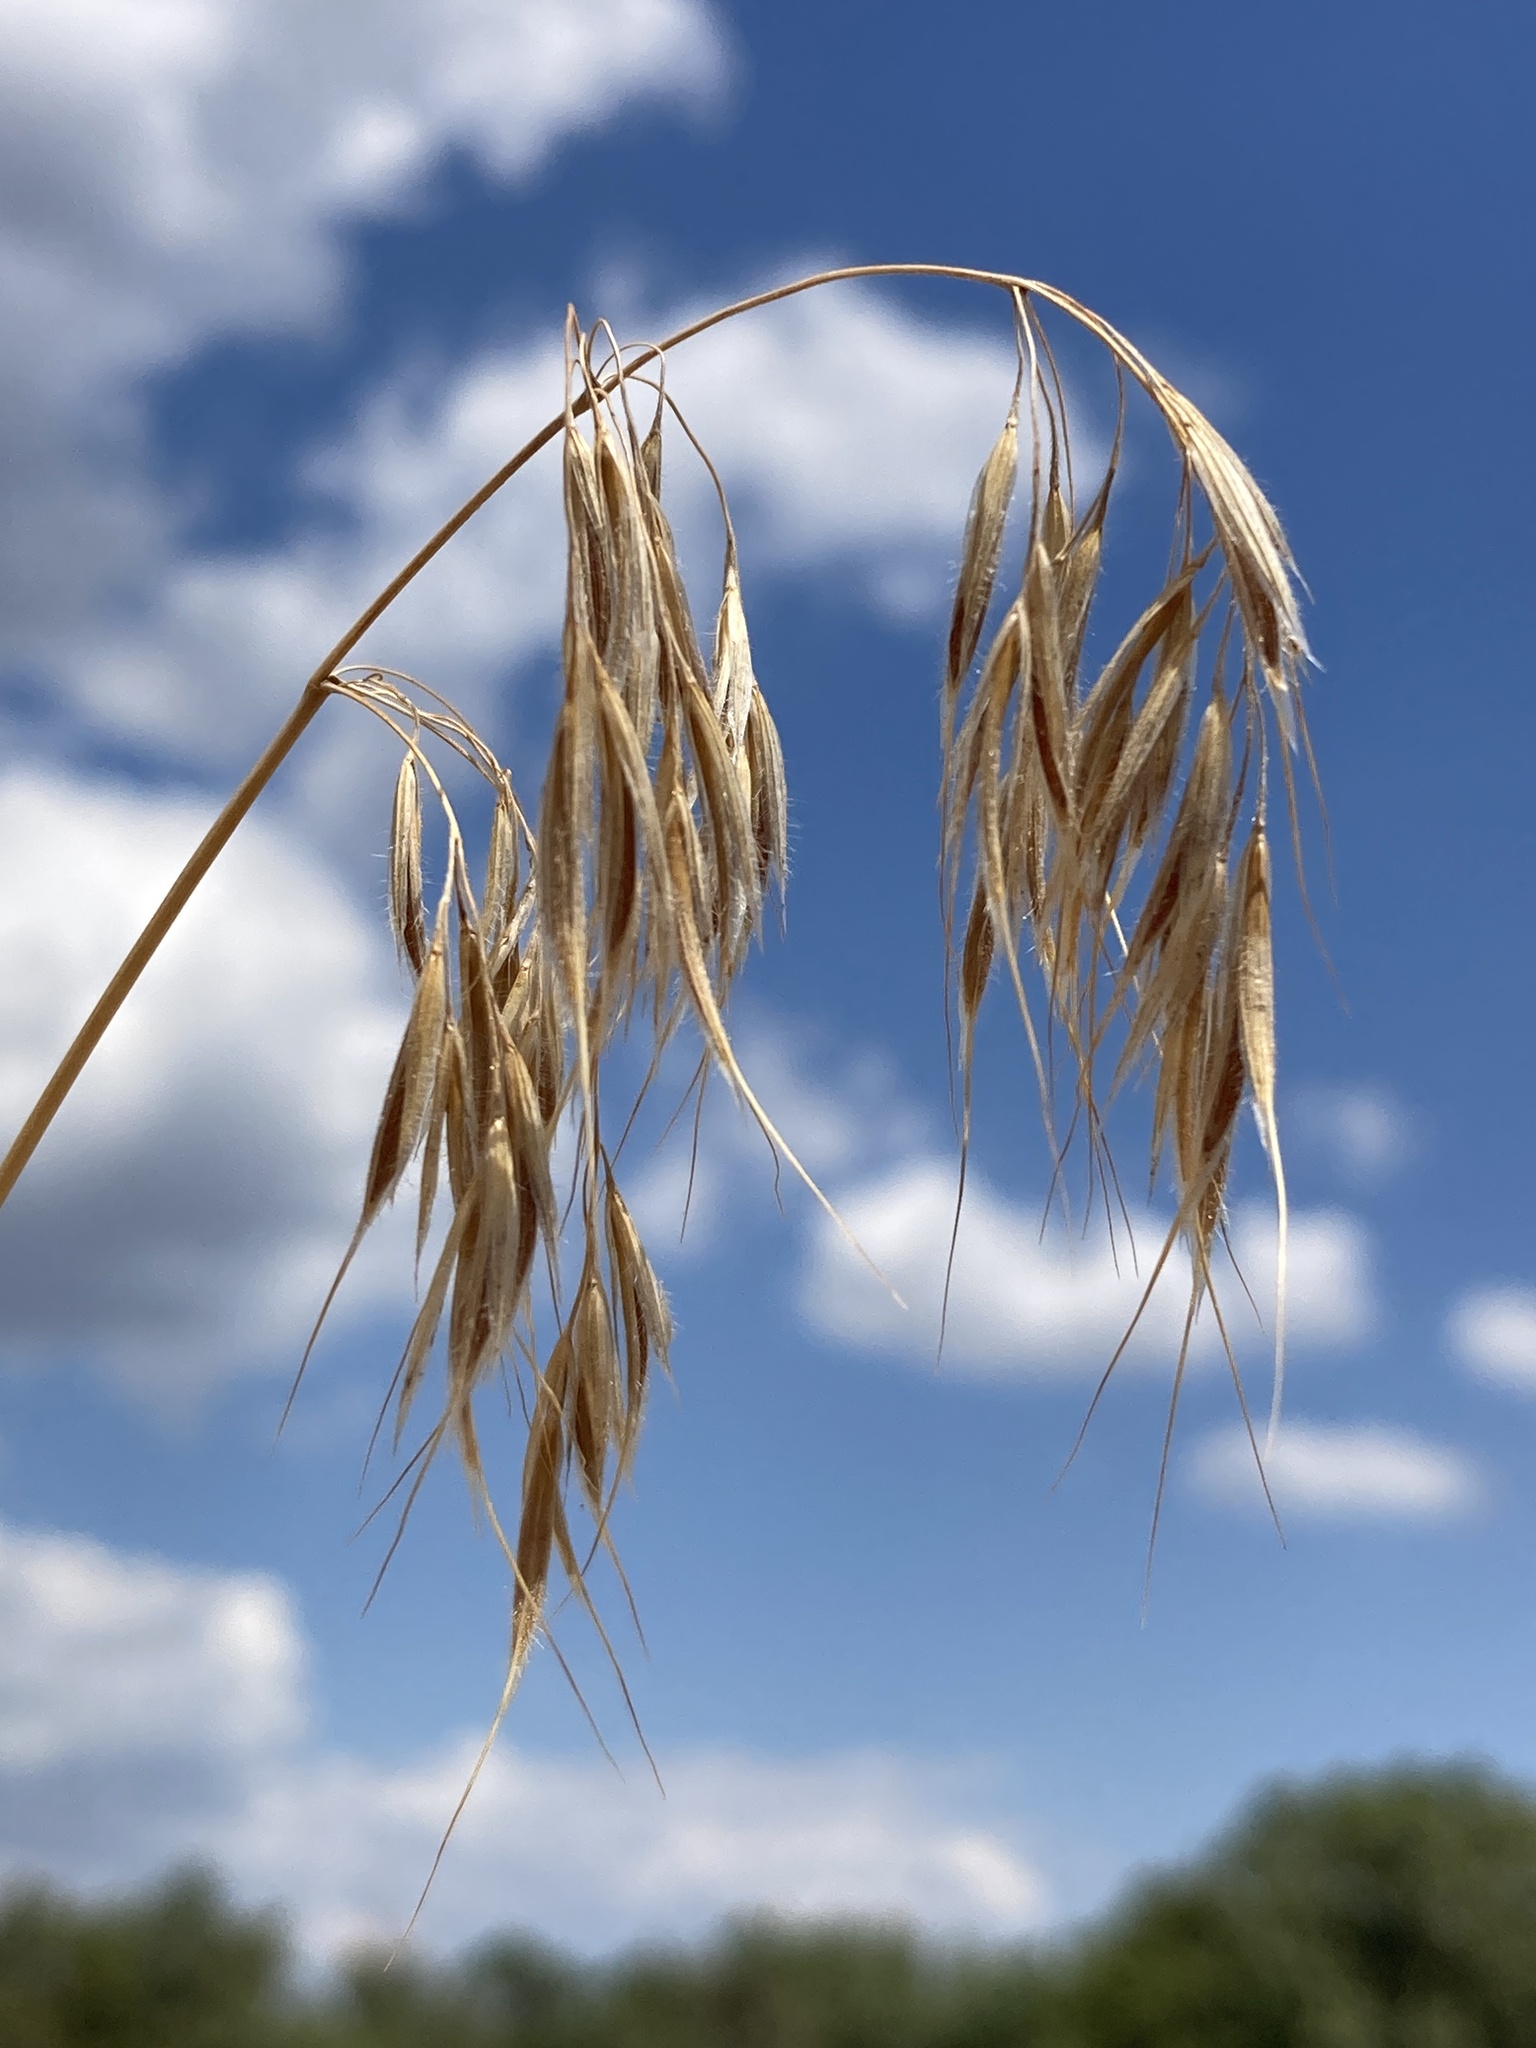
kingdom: Plantae
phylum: Tracheophyta
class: Liliopsida
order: Poales
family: Poaceae
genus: Bromus
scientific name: Bromus tectorum
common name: Cheatgrass
